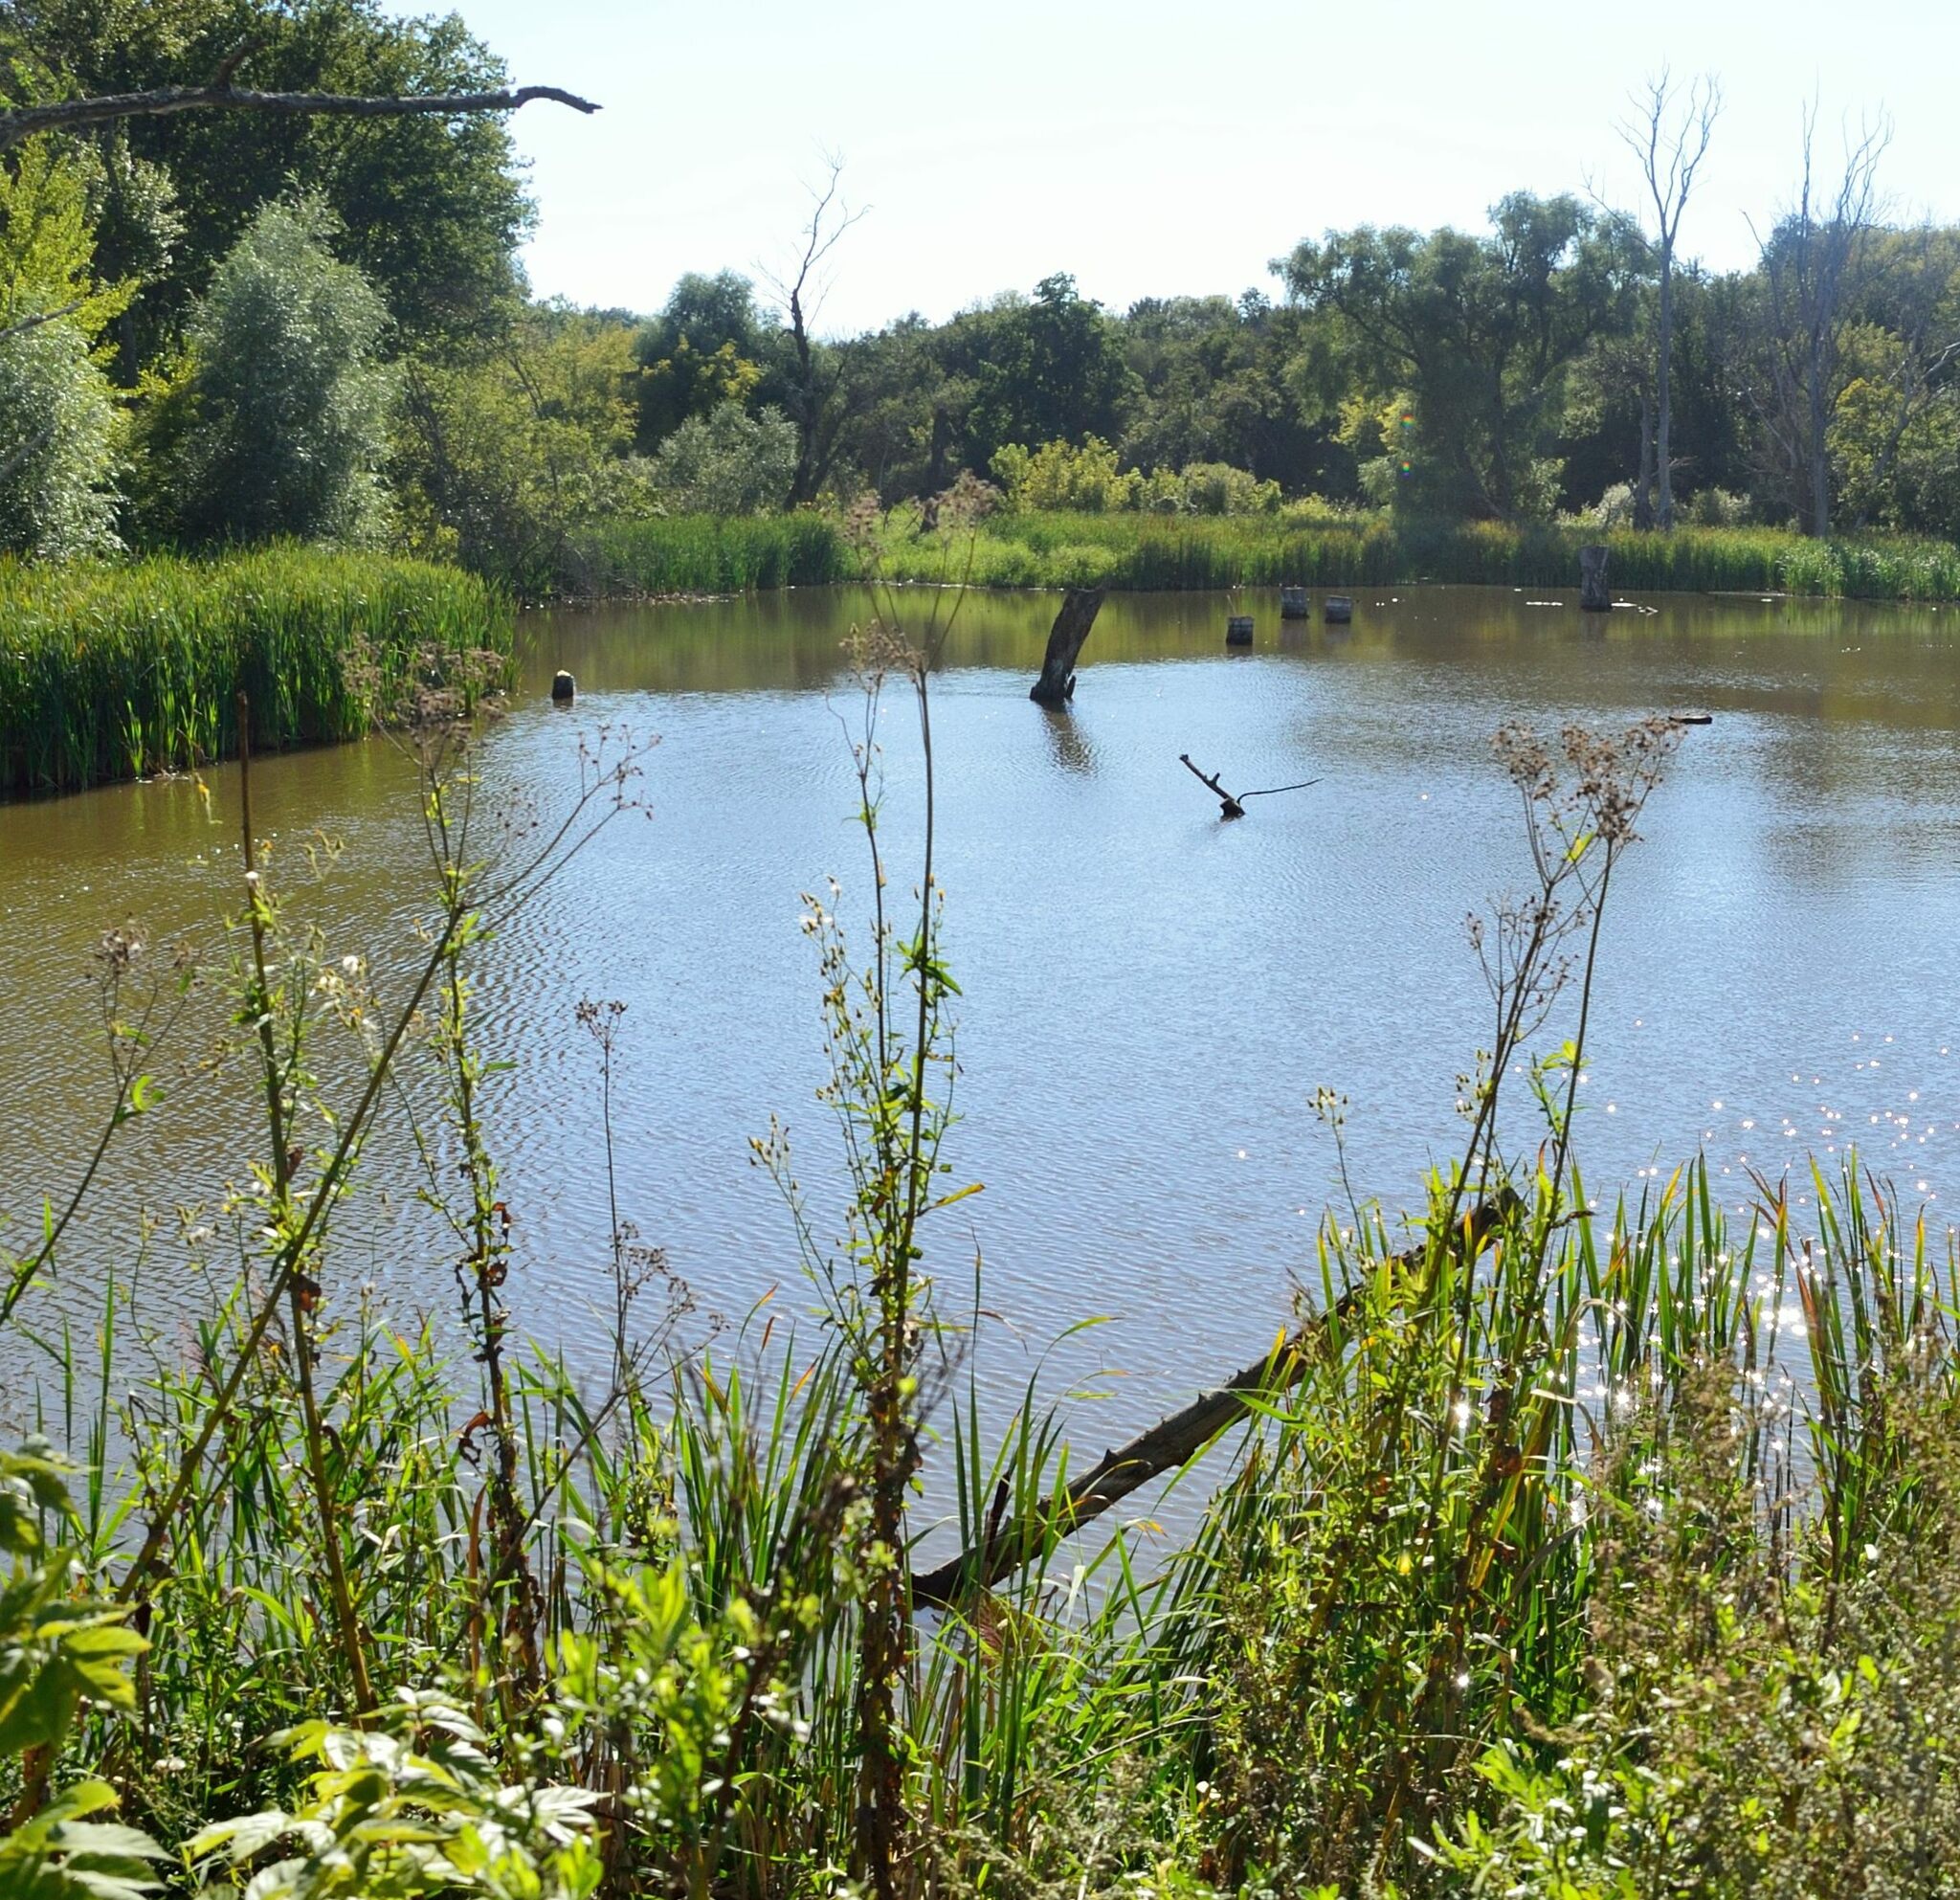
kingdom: Plantae
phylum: Tracheophyta
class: Magnoliopsida
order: Asterales
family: Asteraceae
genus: Sonchus
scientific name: Sonchus palustris
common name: Marsh sow-thistle
